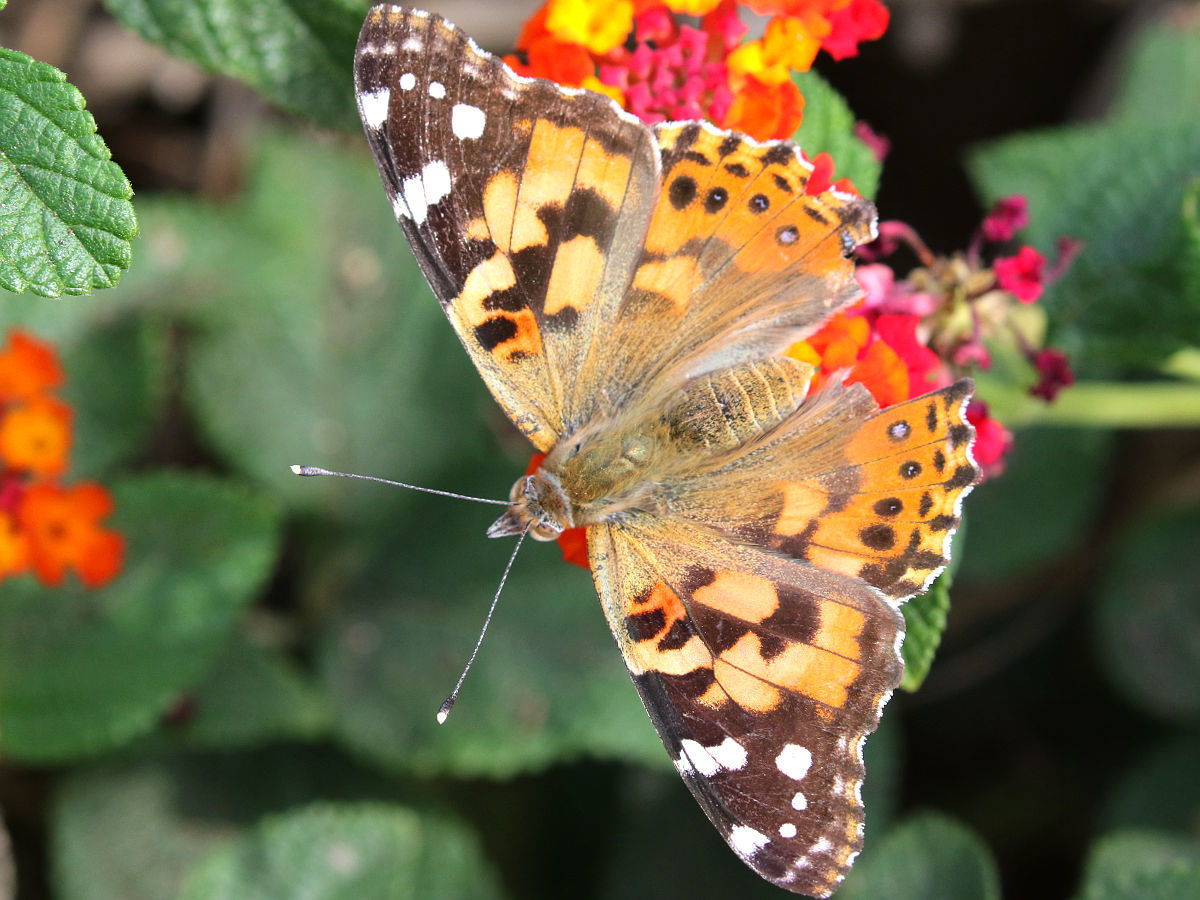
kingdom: Animalia
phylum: Arthropoda
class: Insecta
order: Lepidoptera
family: Nymphalidae
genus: Vanessa
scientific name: Vanessa cardui
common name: Painted lady
